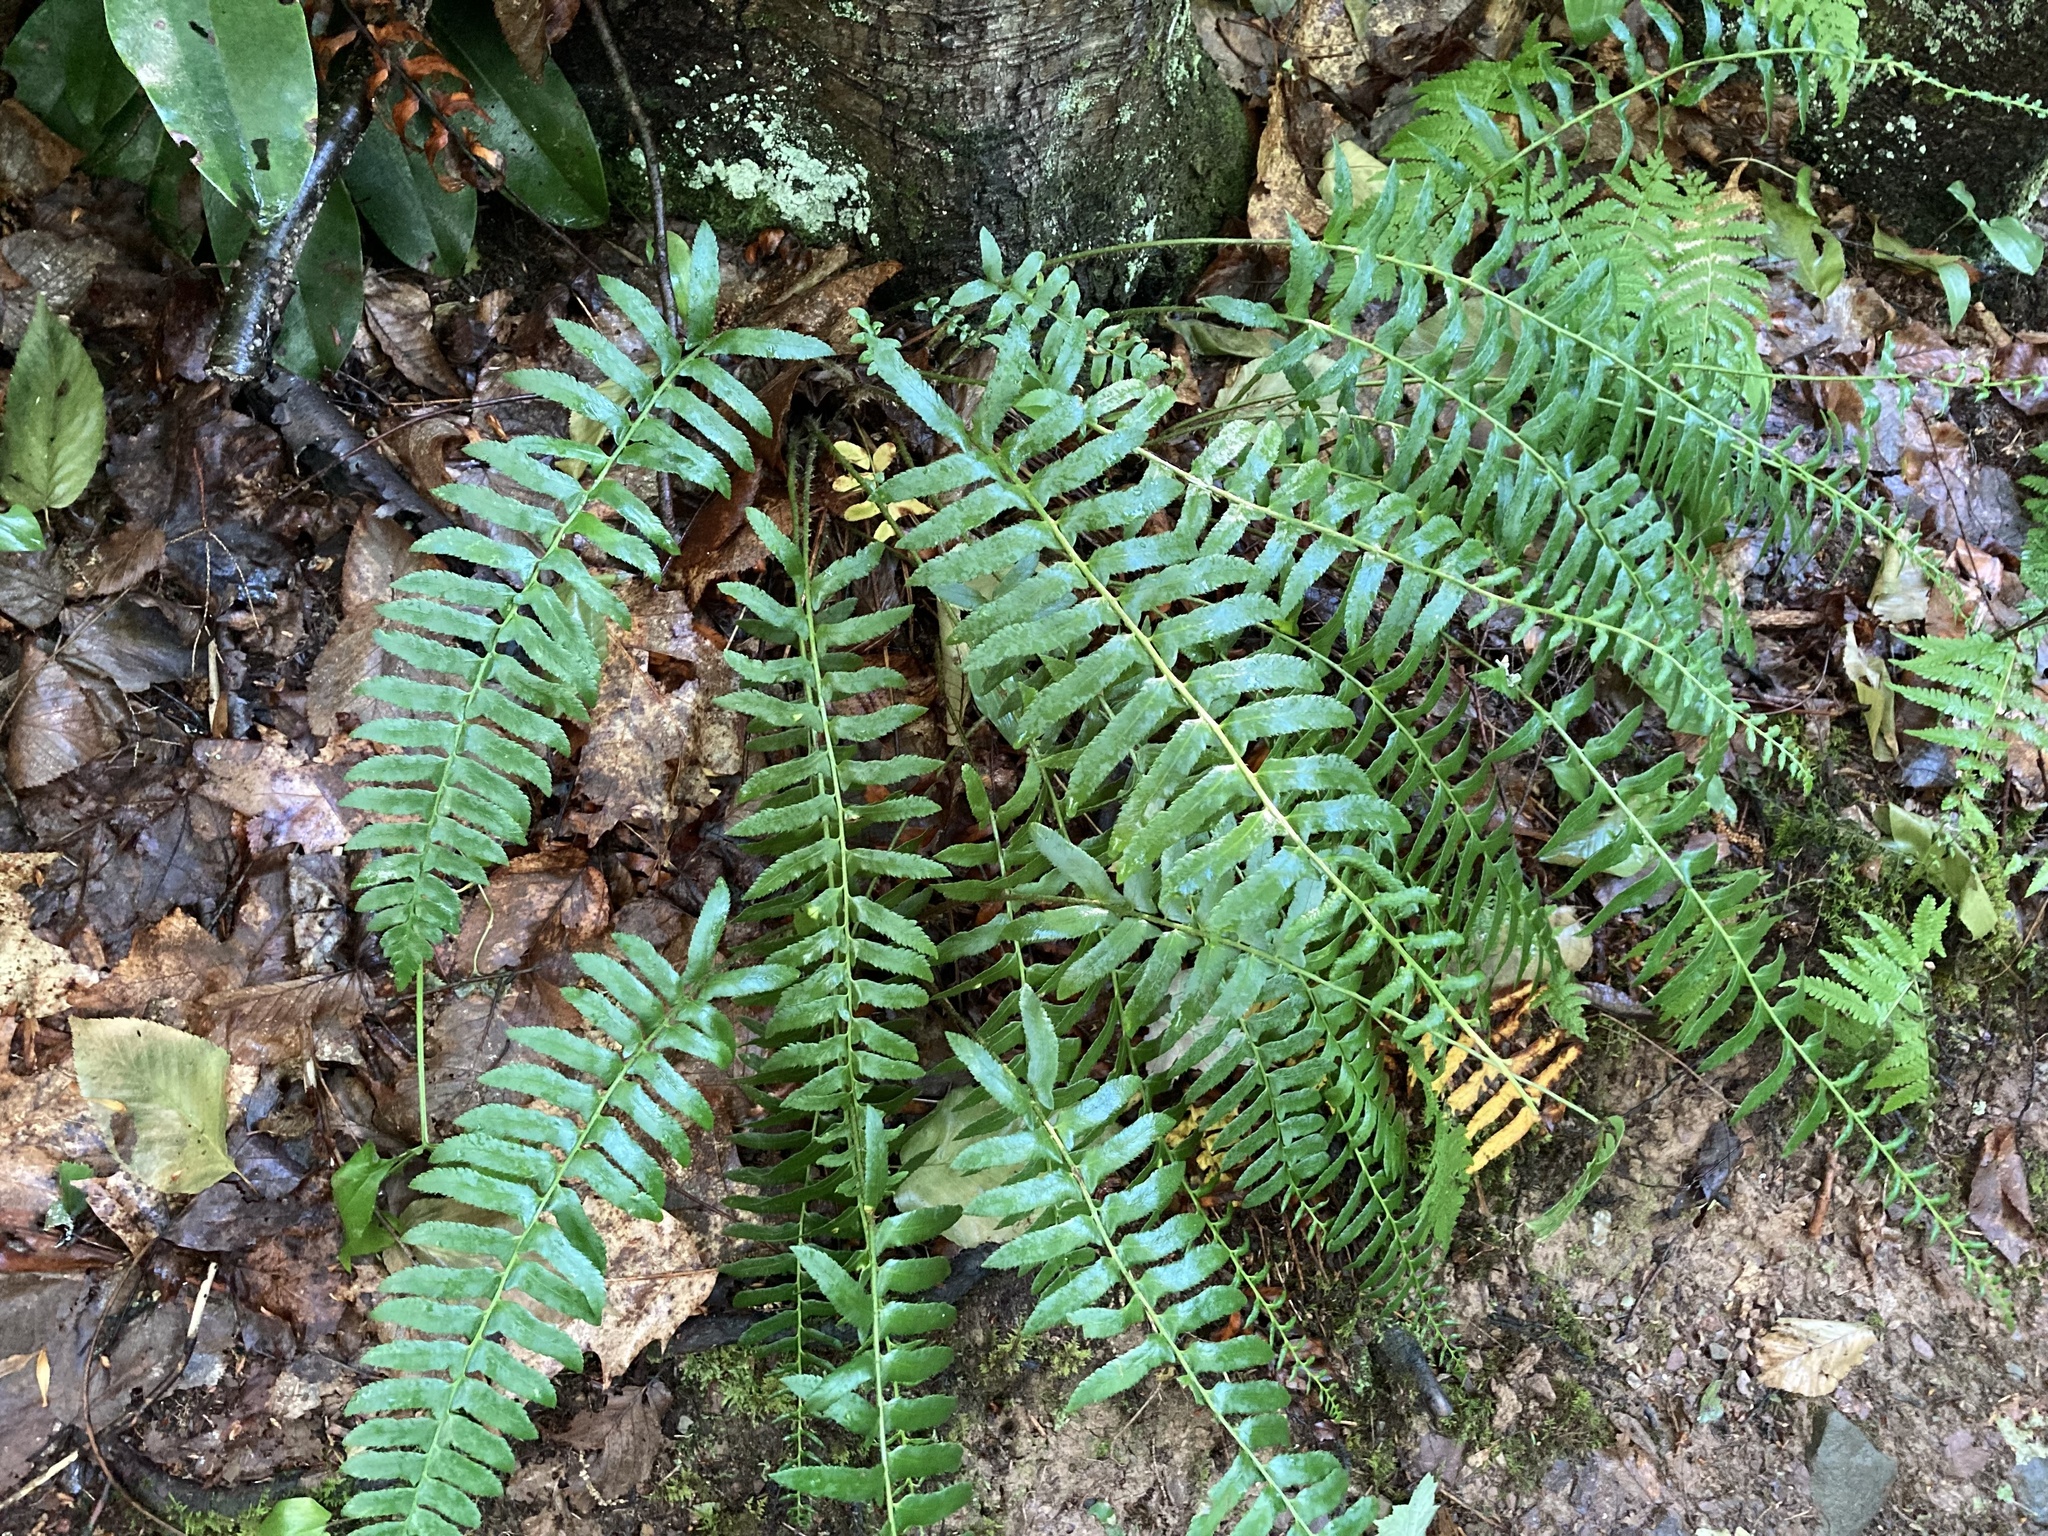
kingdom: Plantae
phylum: Tracheophyta
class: Polypodiopsida
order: Polypodiales
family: Dryopteridaceae
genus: Polystichum
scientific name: Polystichum acrostichoides
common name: Christmas fern
